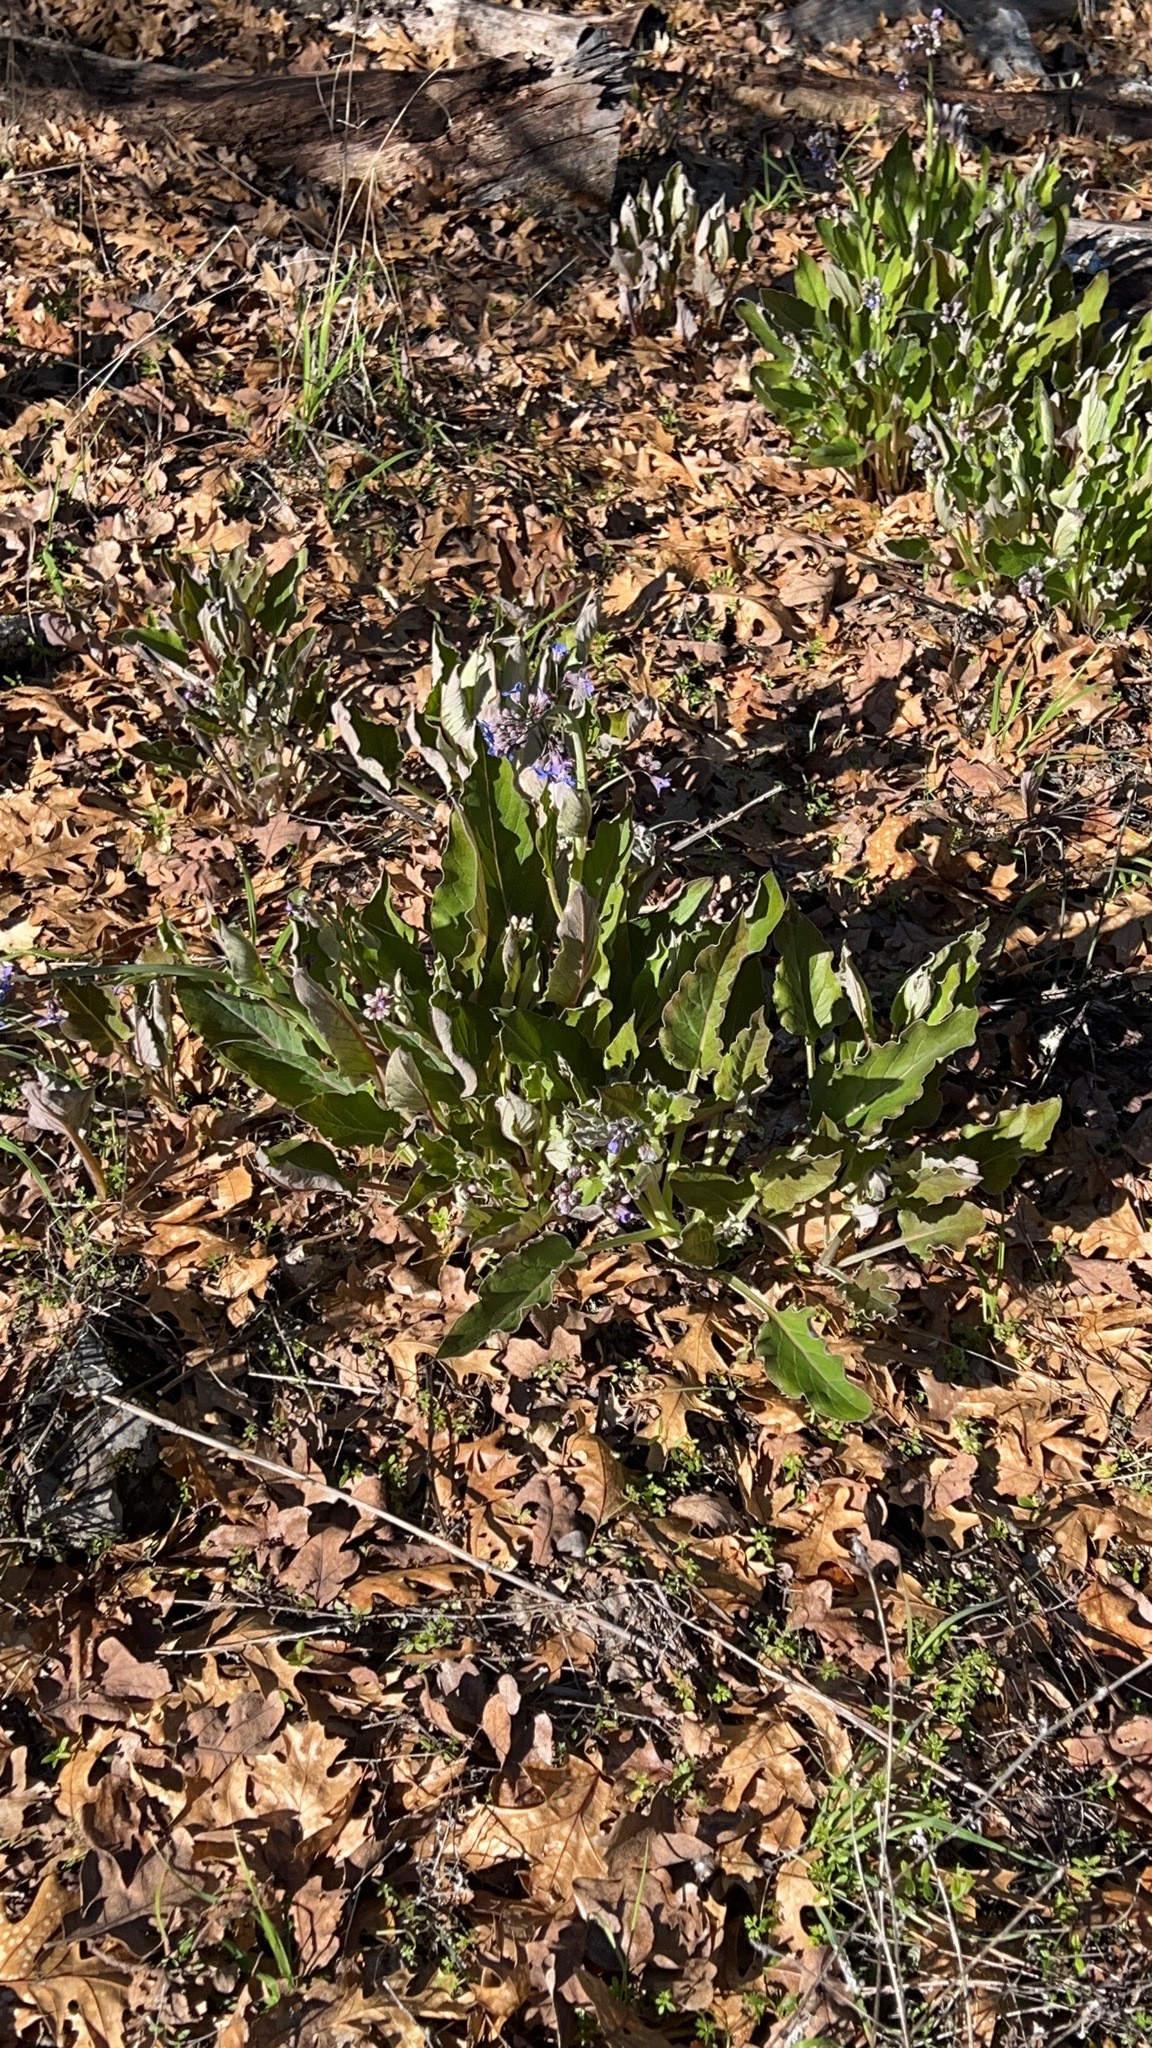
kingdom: Plantae
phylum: Tracheophyta
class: Magnoliopsida
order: Boraginales
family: Boraginaceae
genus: Adelinia
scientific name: Adelinia grande
